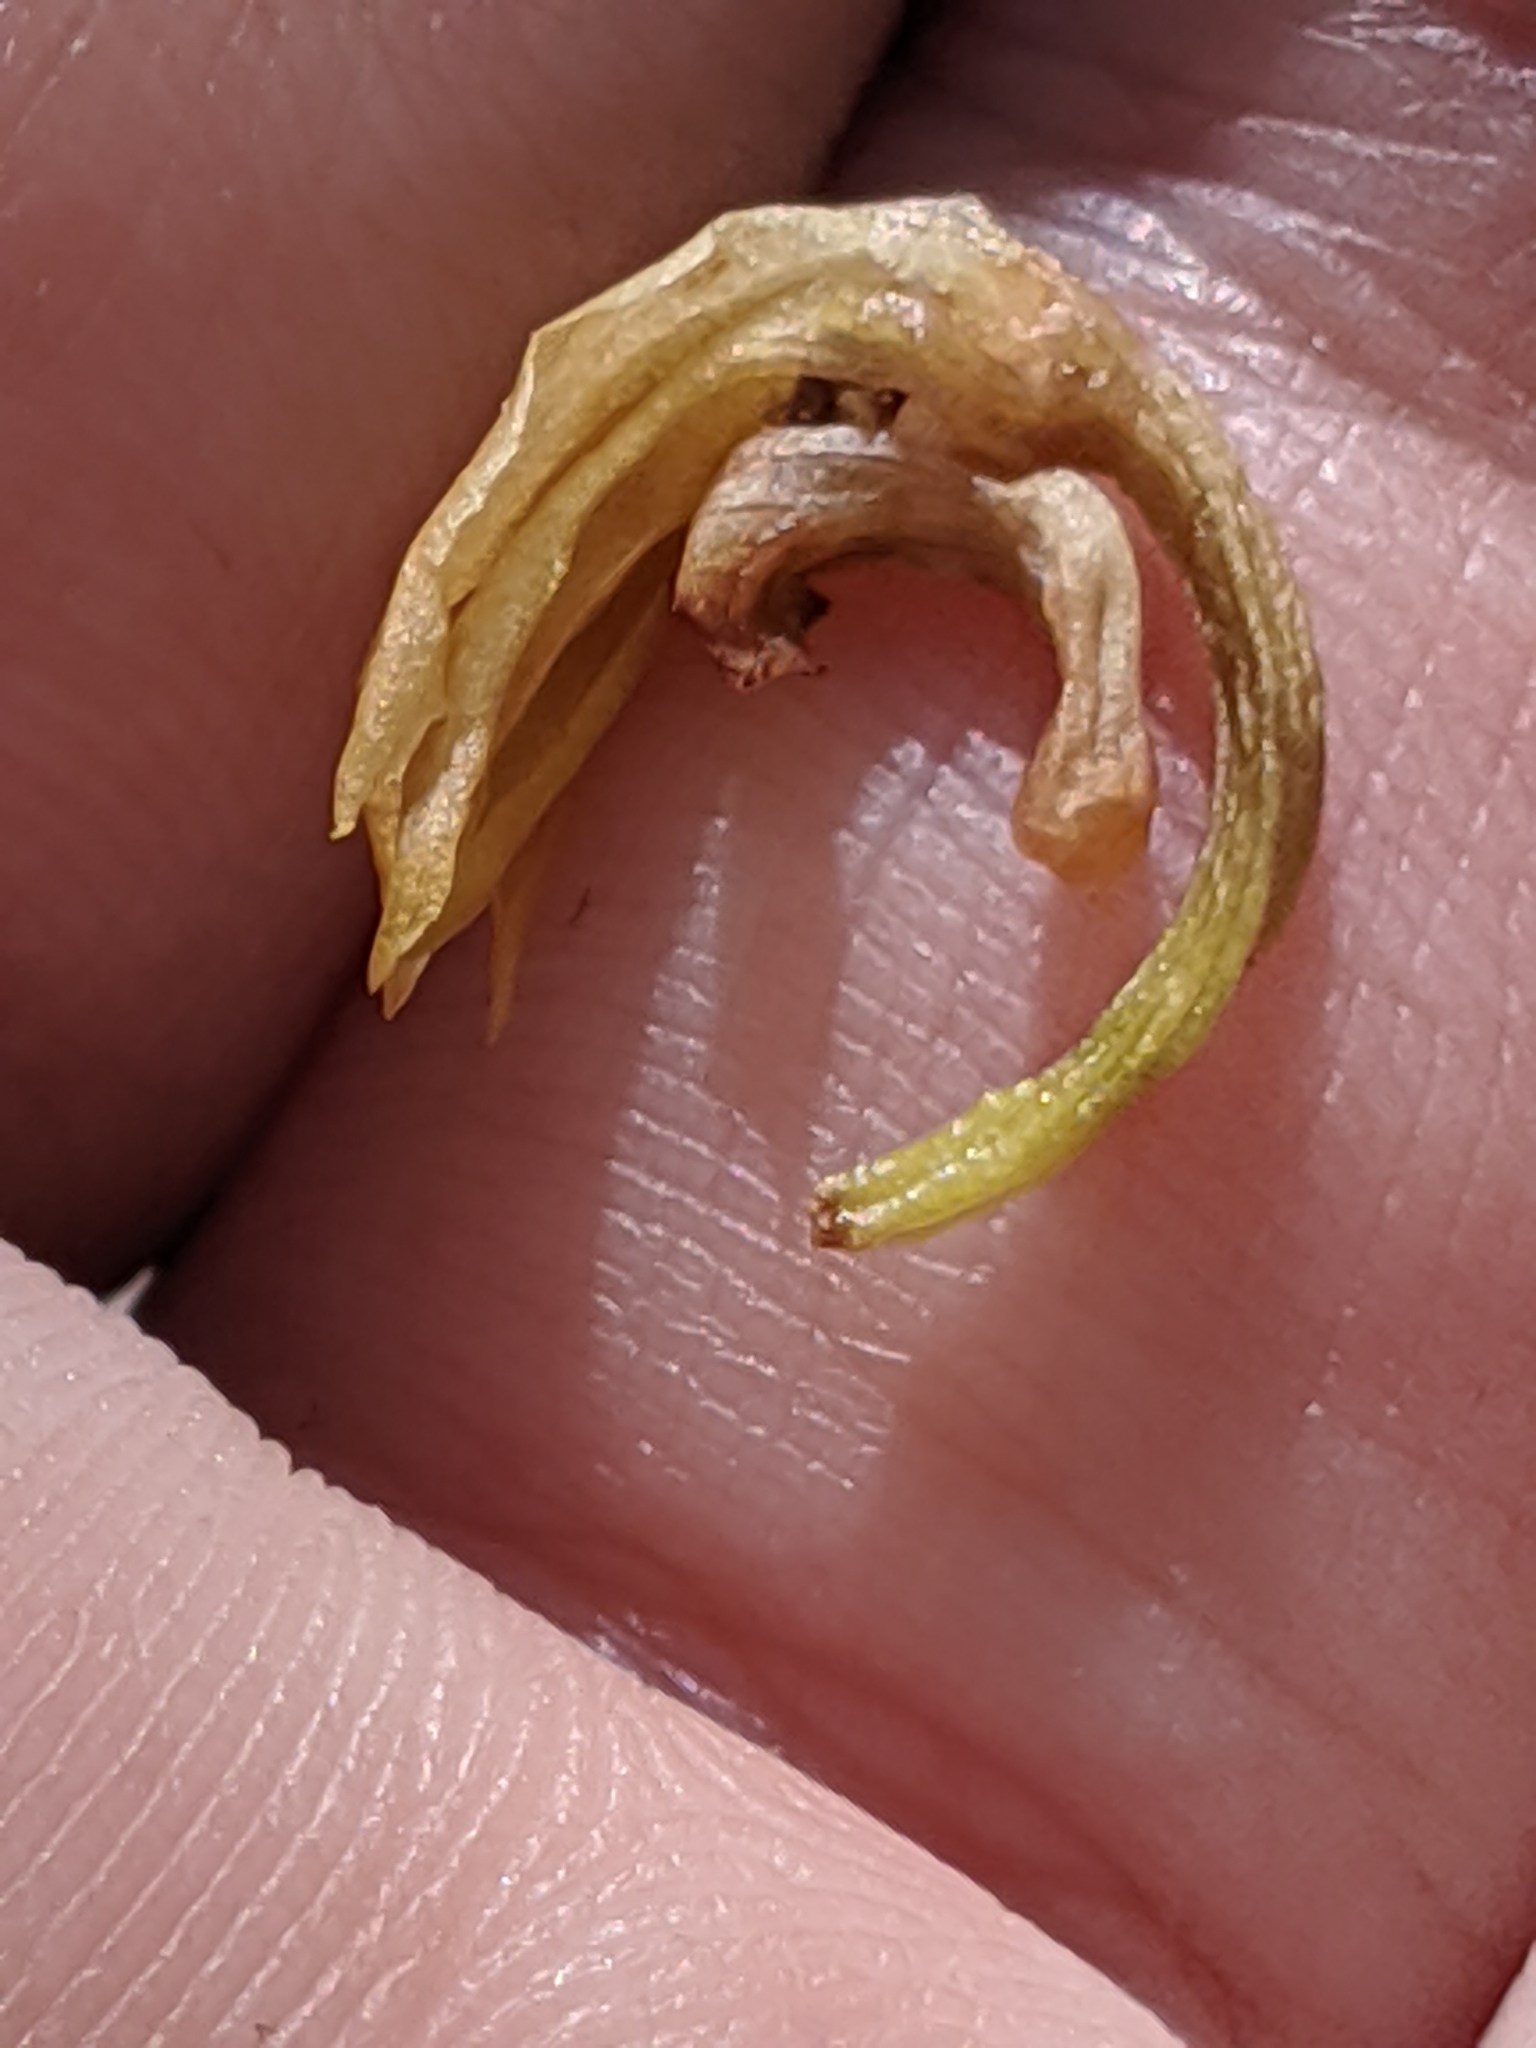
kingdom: Plantae
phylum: Tracheophyta
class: Liliopsida
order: Asparagales
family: Orchidaceae
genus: Eulophia
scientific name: Eulophia maculata
